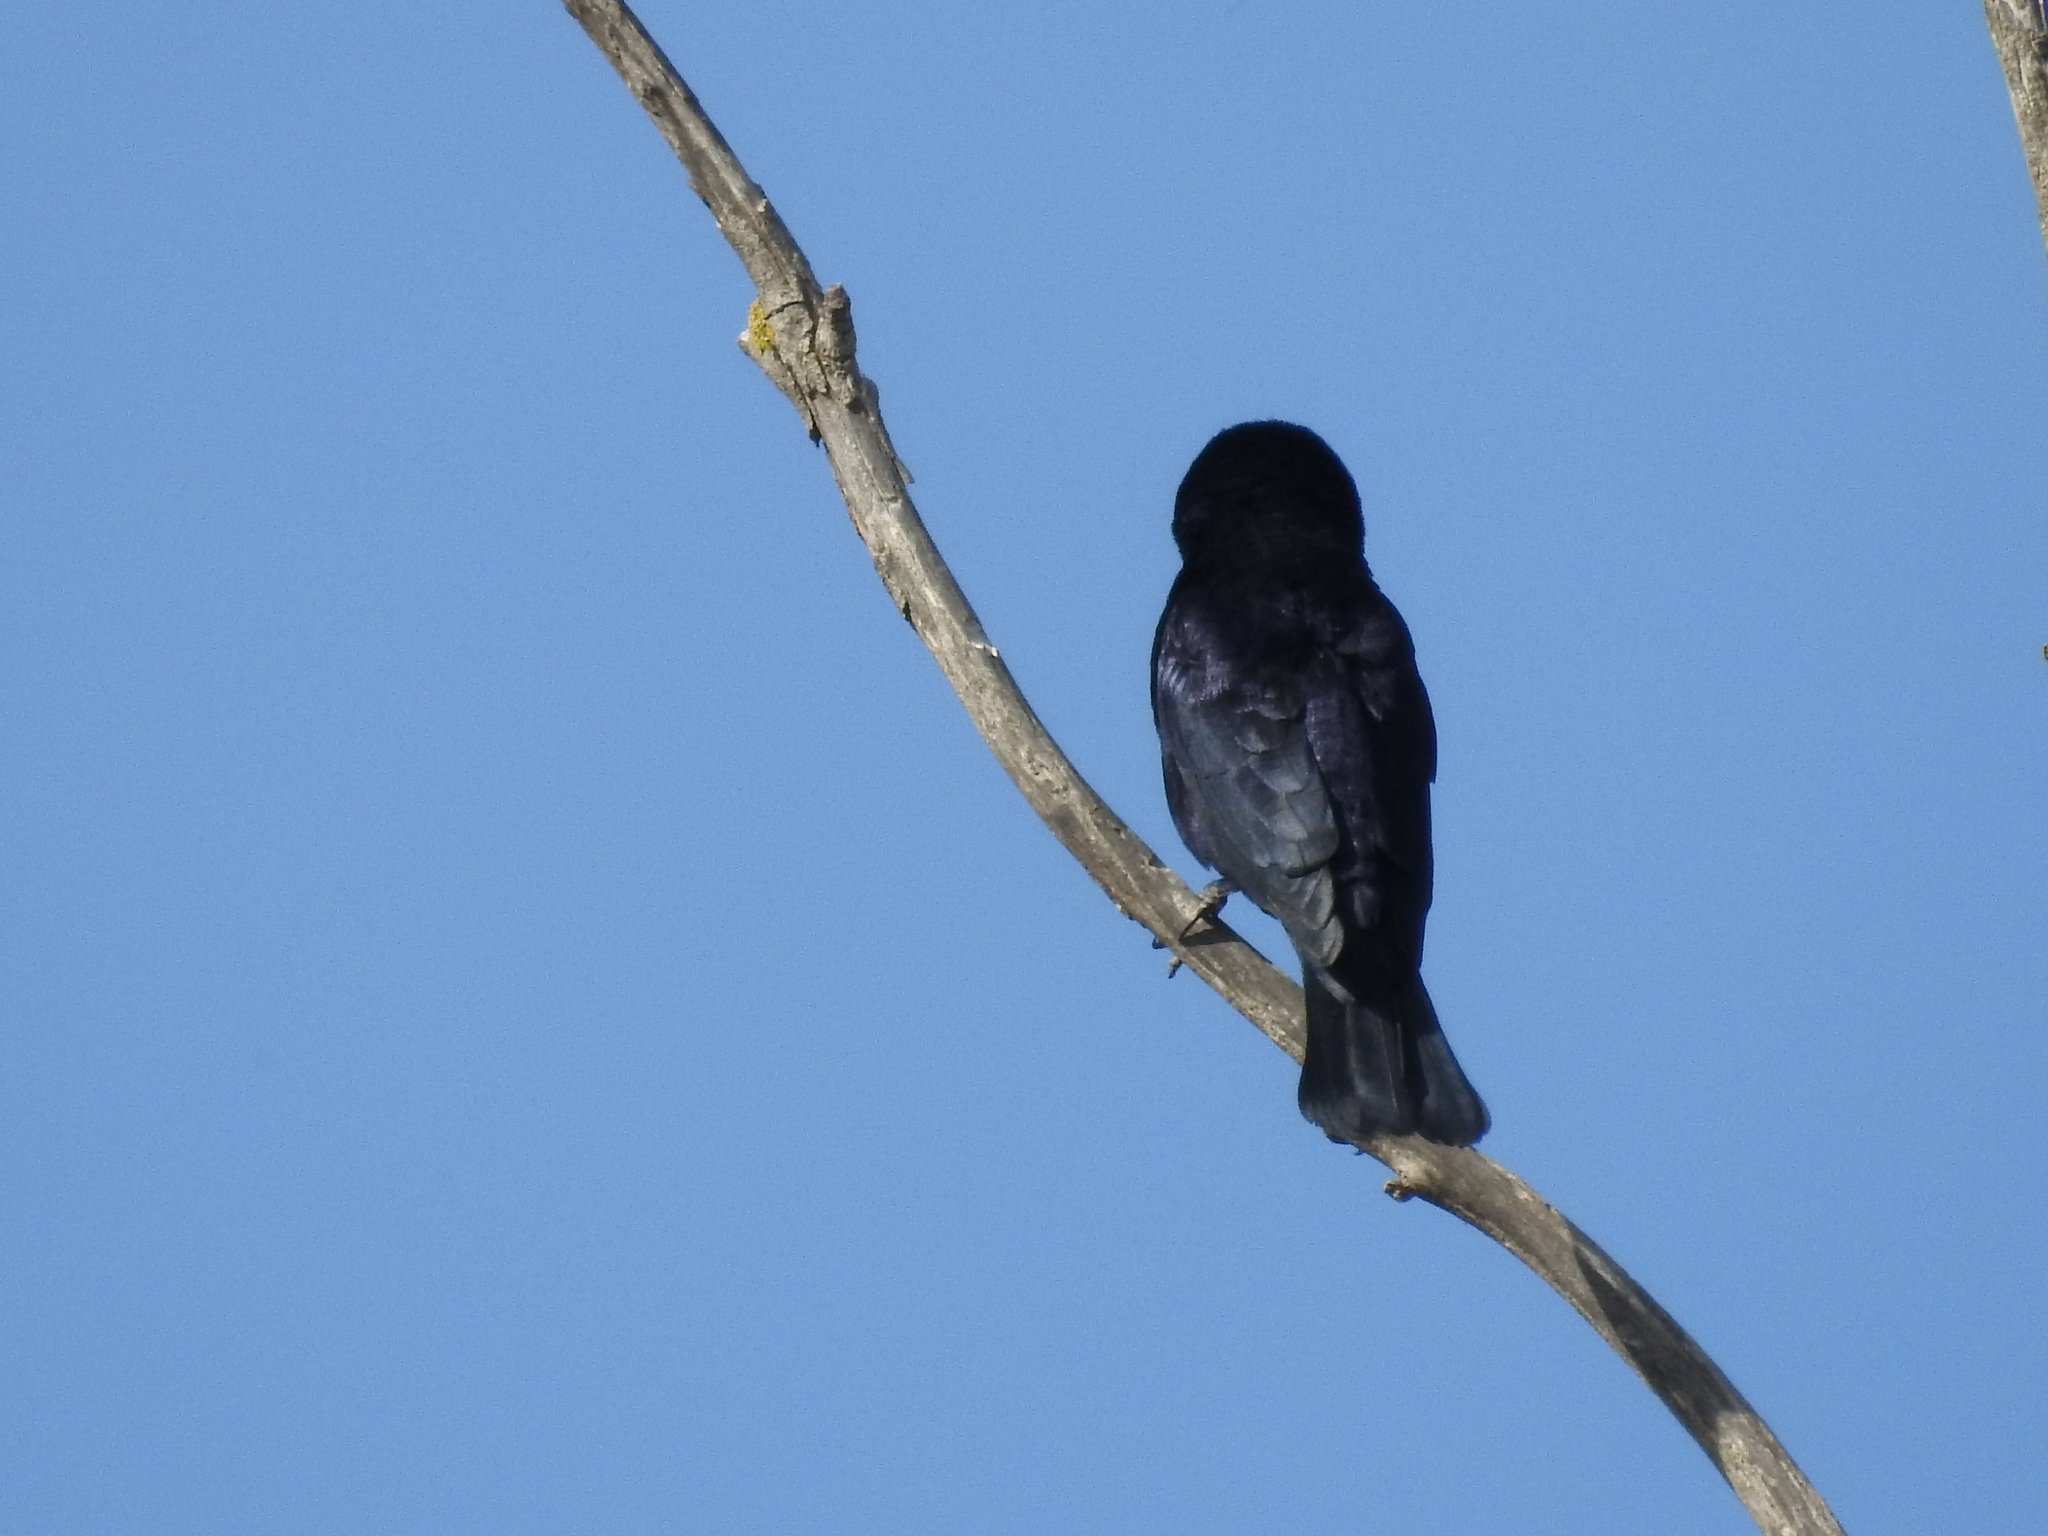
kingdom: Animalia
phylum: Chordata
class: Aves
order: Passeriformes
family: Icteridae
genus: Molothrus
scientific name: Molothrus bonariensis
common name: Shiny cowbird
